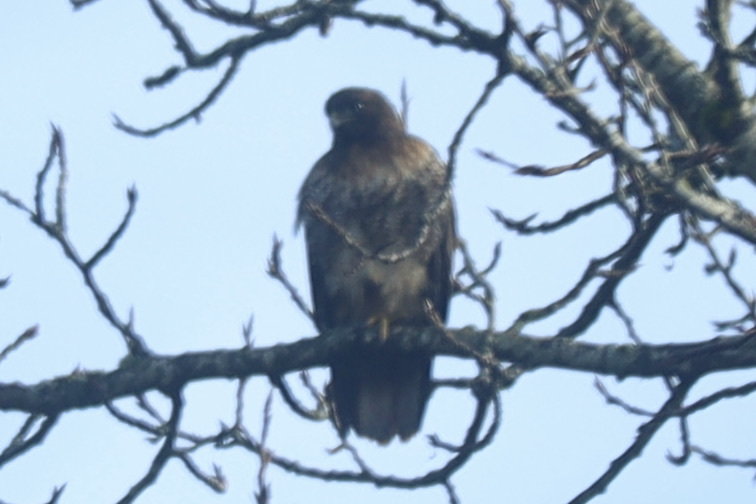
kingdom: Animalia
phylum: Chordata
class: Aves
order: Accipitriformes
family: Accipitridae
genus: Buteo
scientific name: Buteo jamaicensis
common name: Red-tailed hawk
